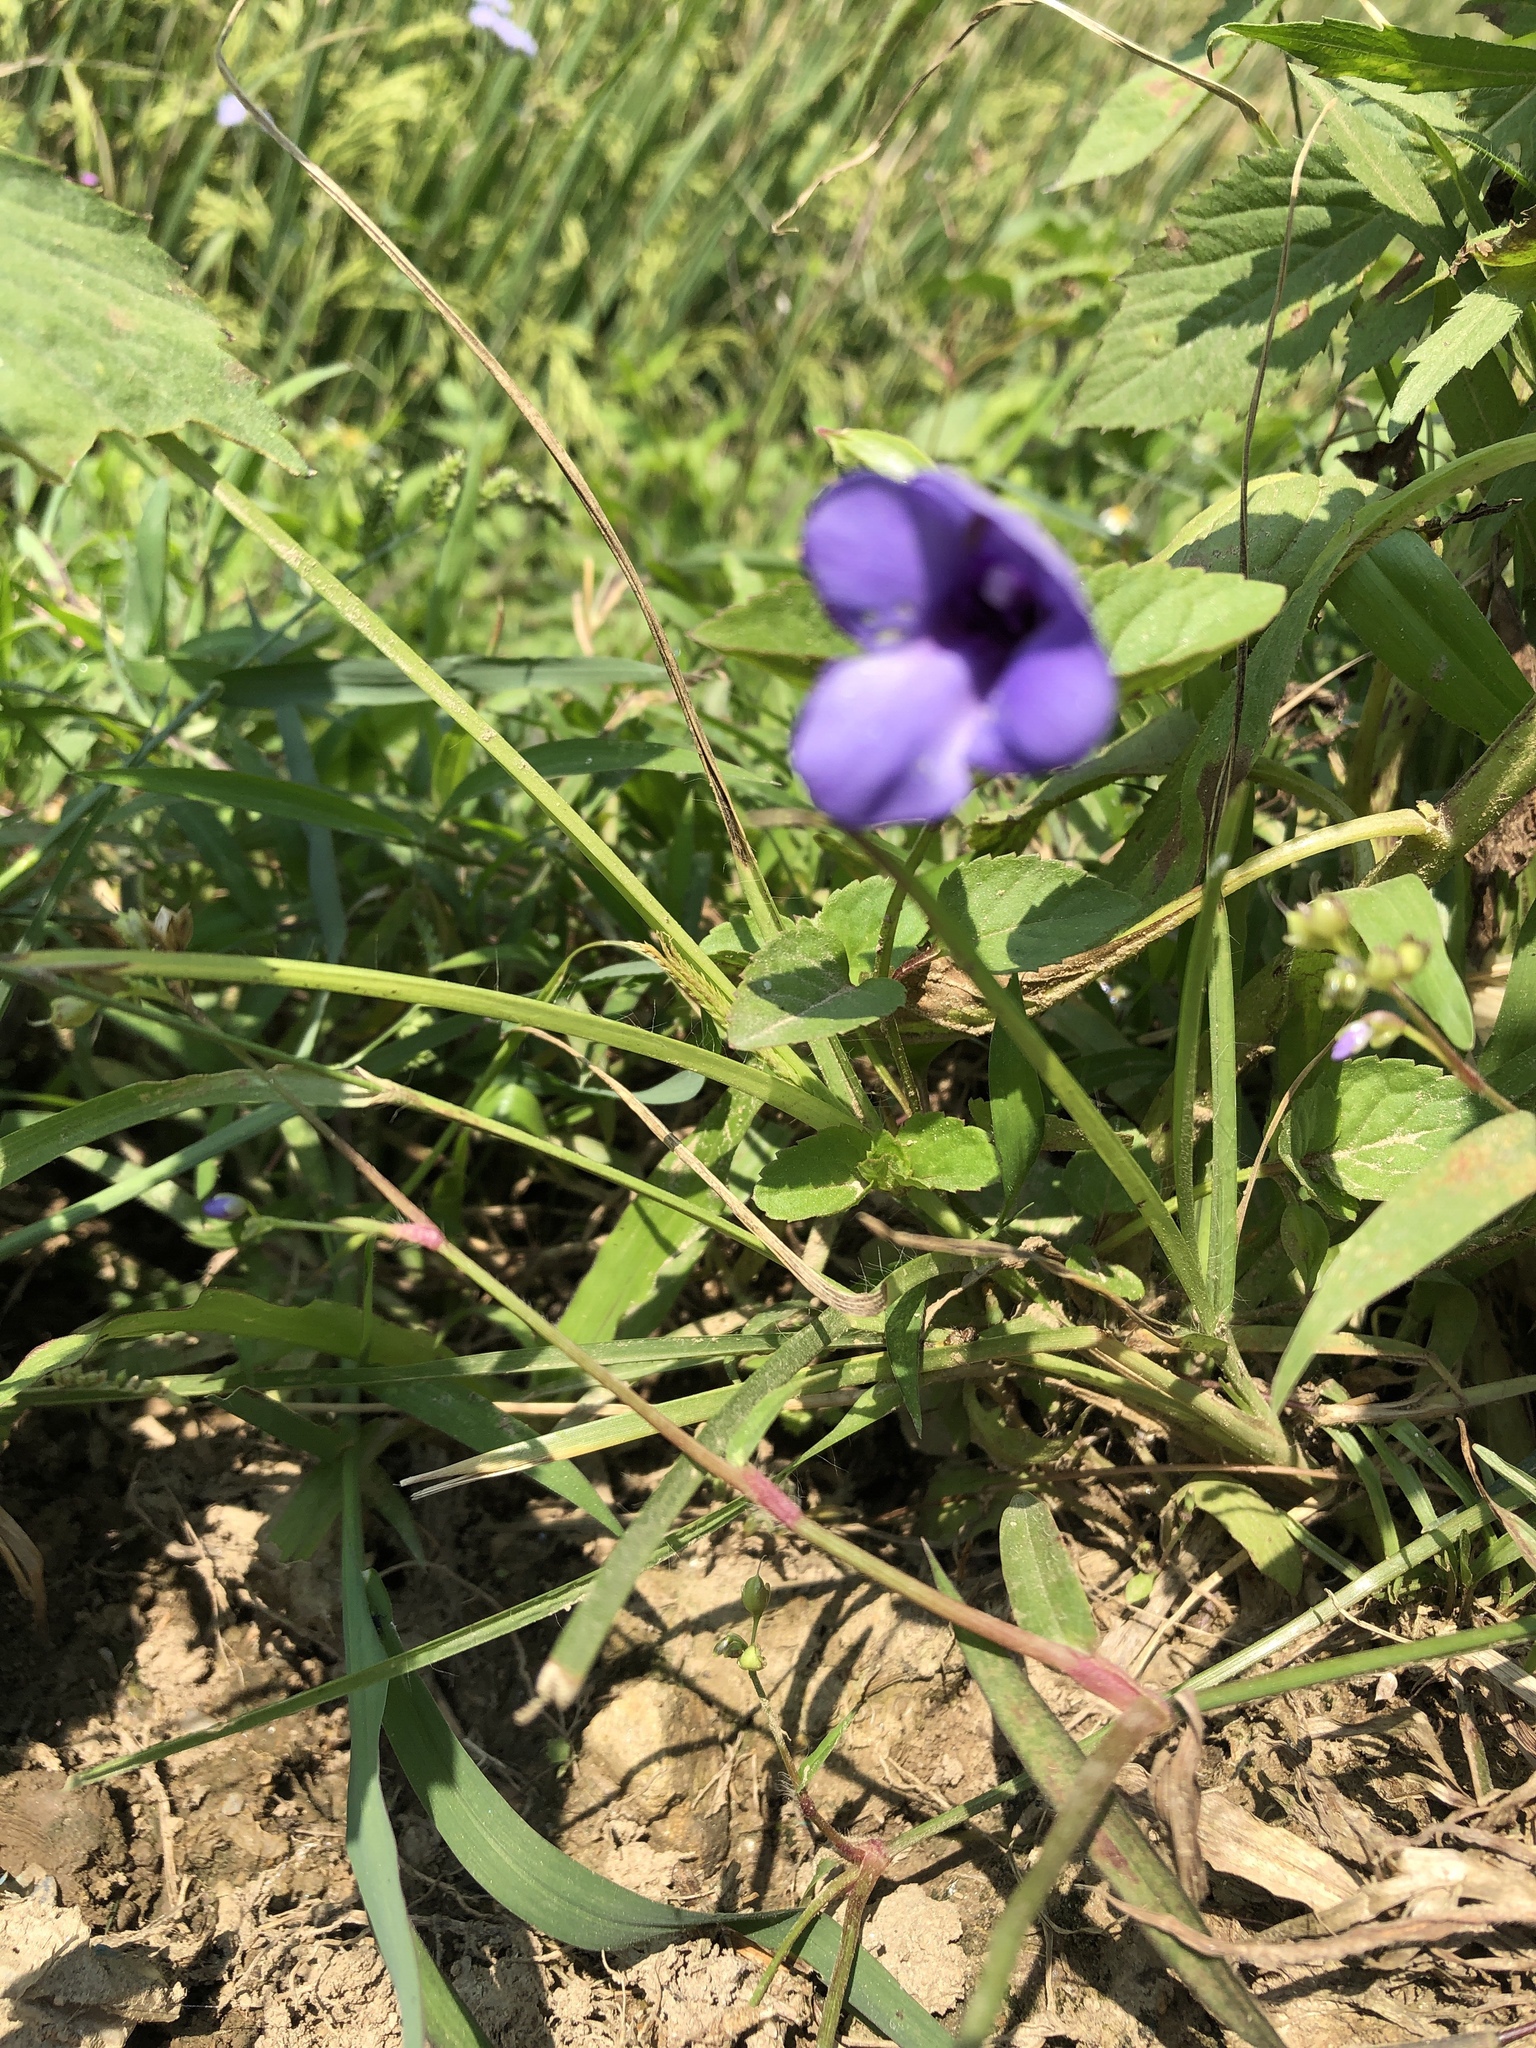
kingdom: Plantae
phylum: Tracheophyta
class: Magnoliopsida
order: Lamiales
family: Linderniaceae
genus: Torenia
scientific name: Torenia concolor
